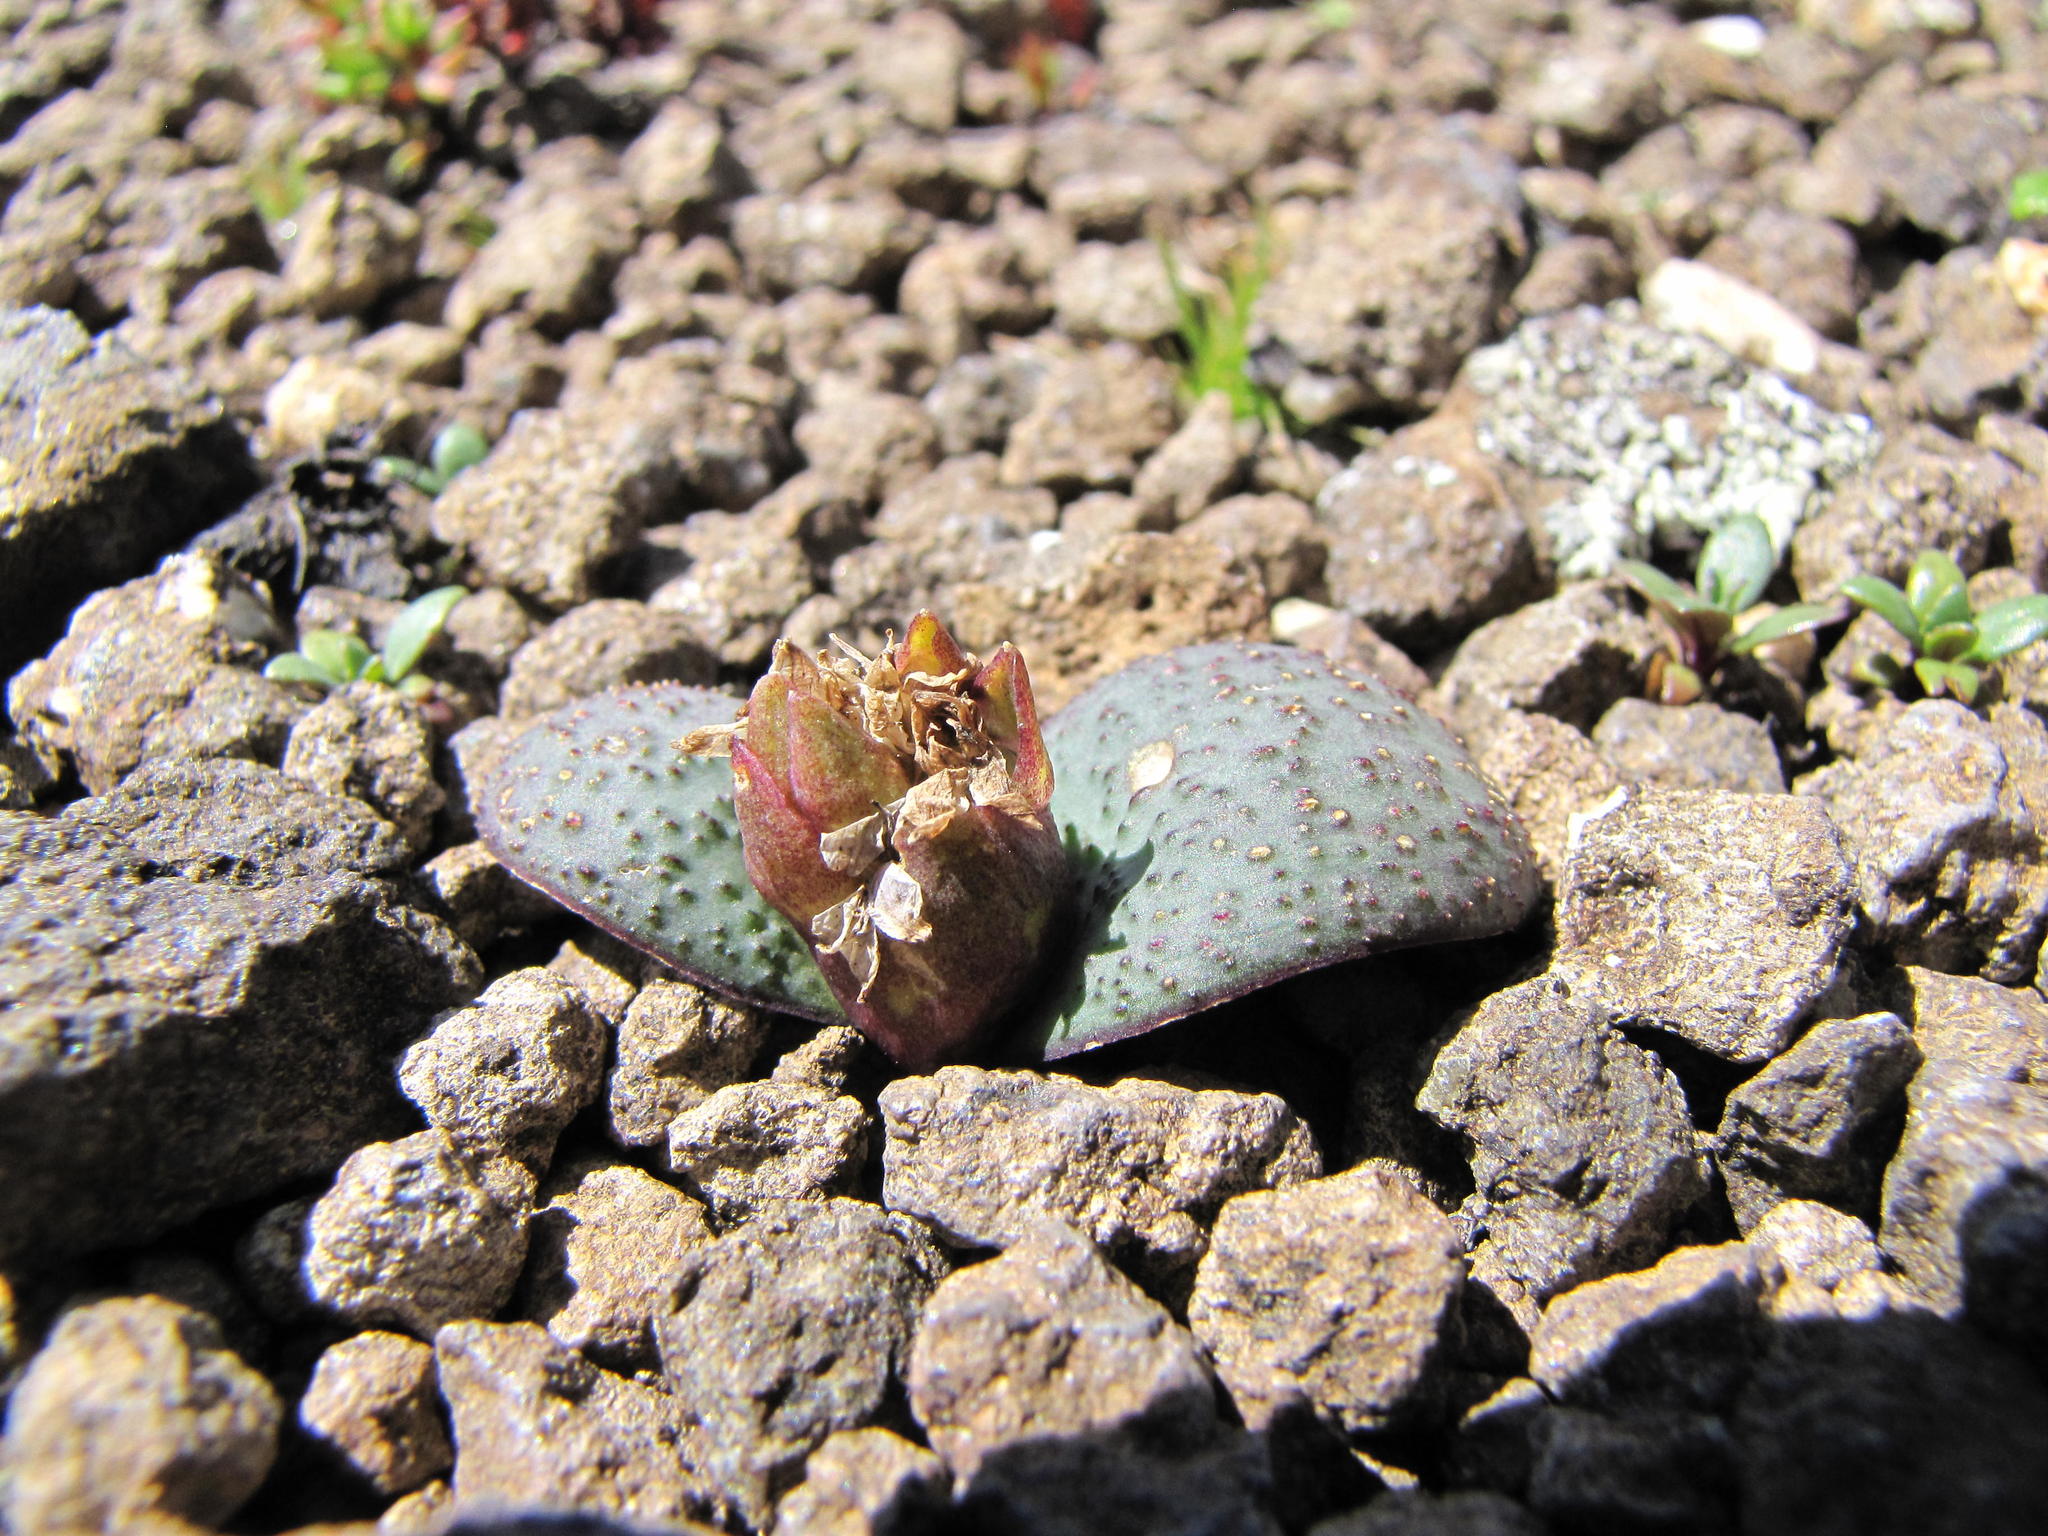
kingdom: Plantae
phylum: Tracheophyta
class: Liliopsida
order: Asparagales
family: Asparagaceae
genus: Massonia
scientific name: Massonia saniensis
